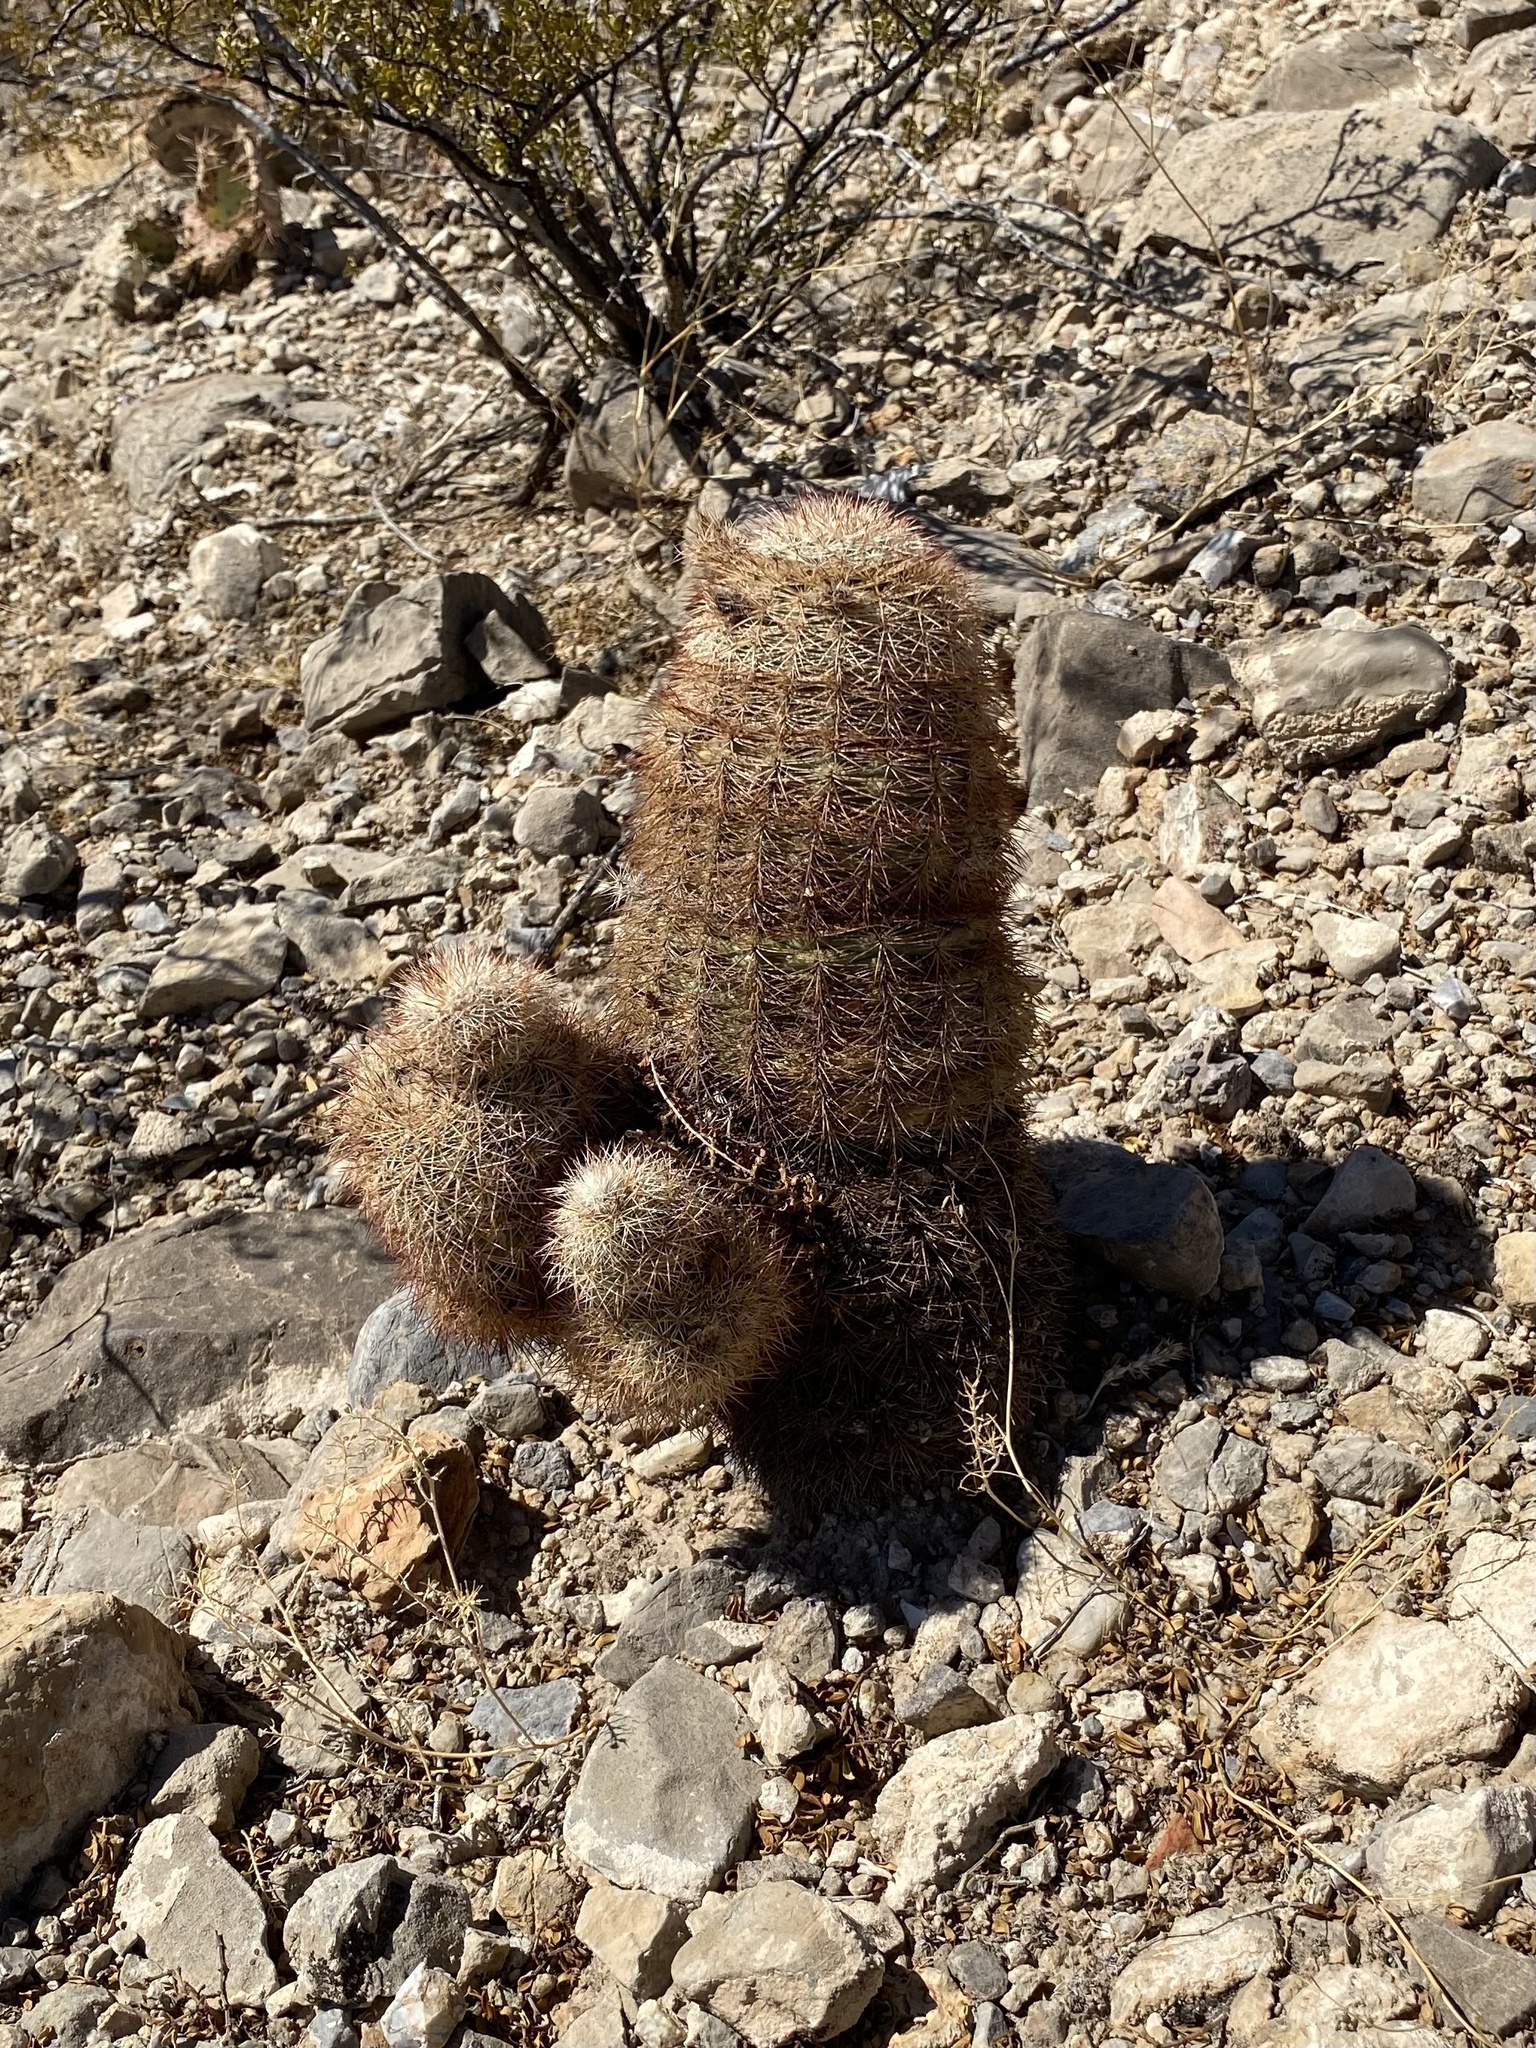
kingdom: Plantae
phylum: Tracheophyta
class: Magnoliopsida
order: Caryophyllales
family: Cactaceae
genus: Echinocereus
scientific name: Echinocereus dasyacanthus
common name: Spiny hedgehog cactus
